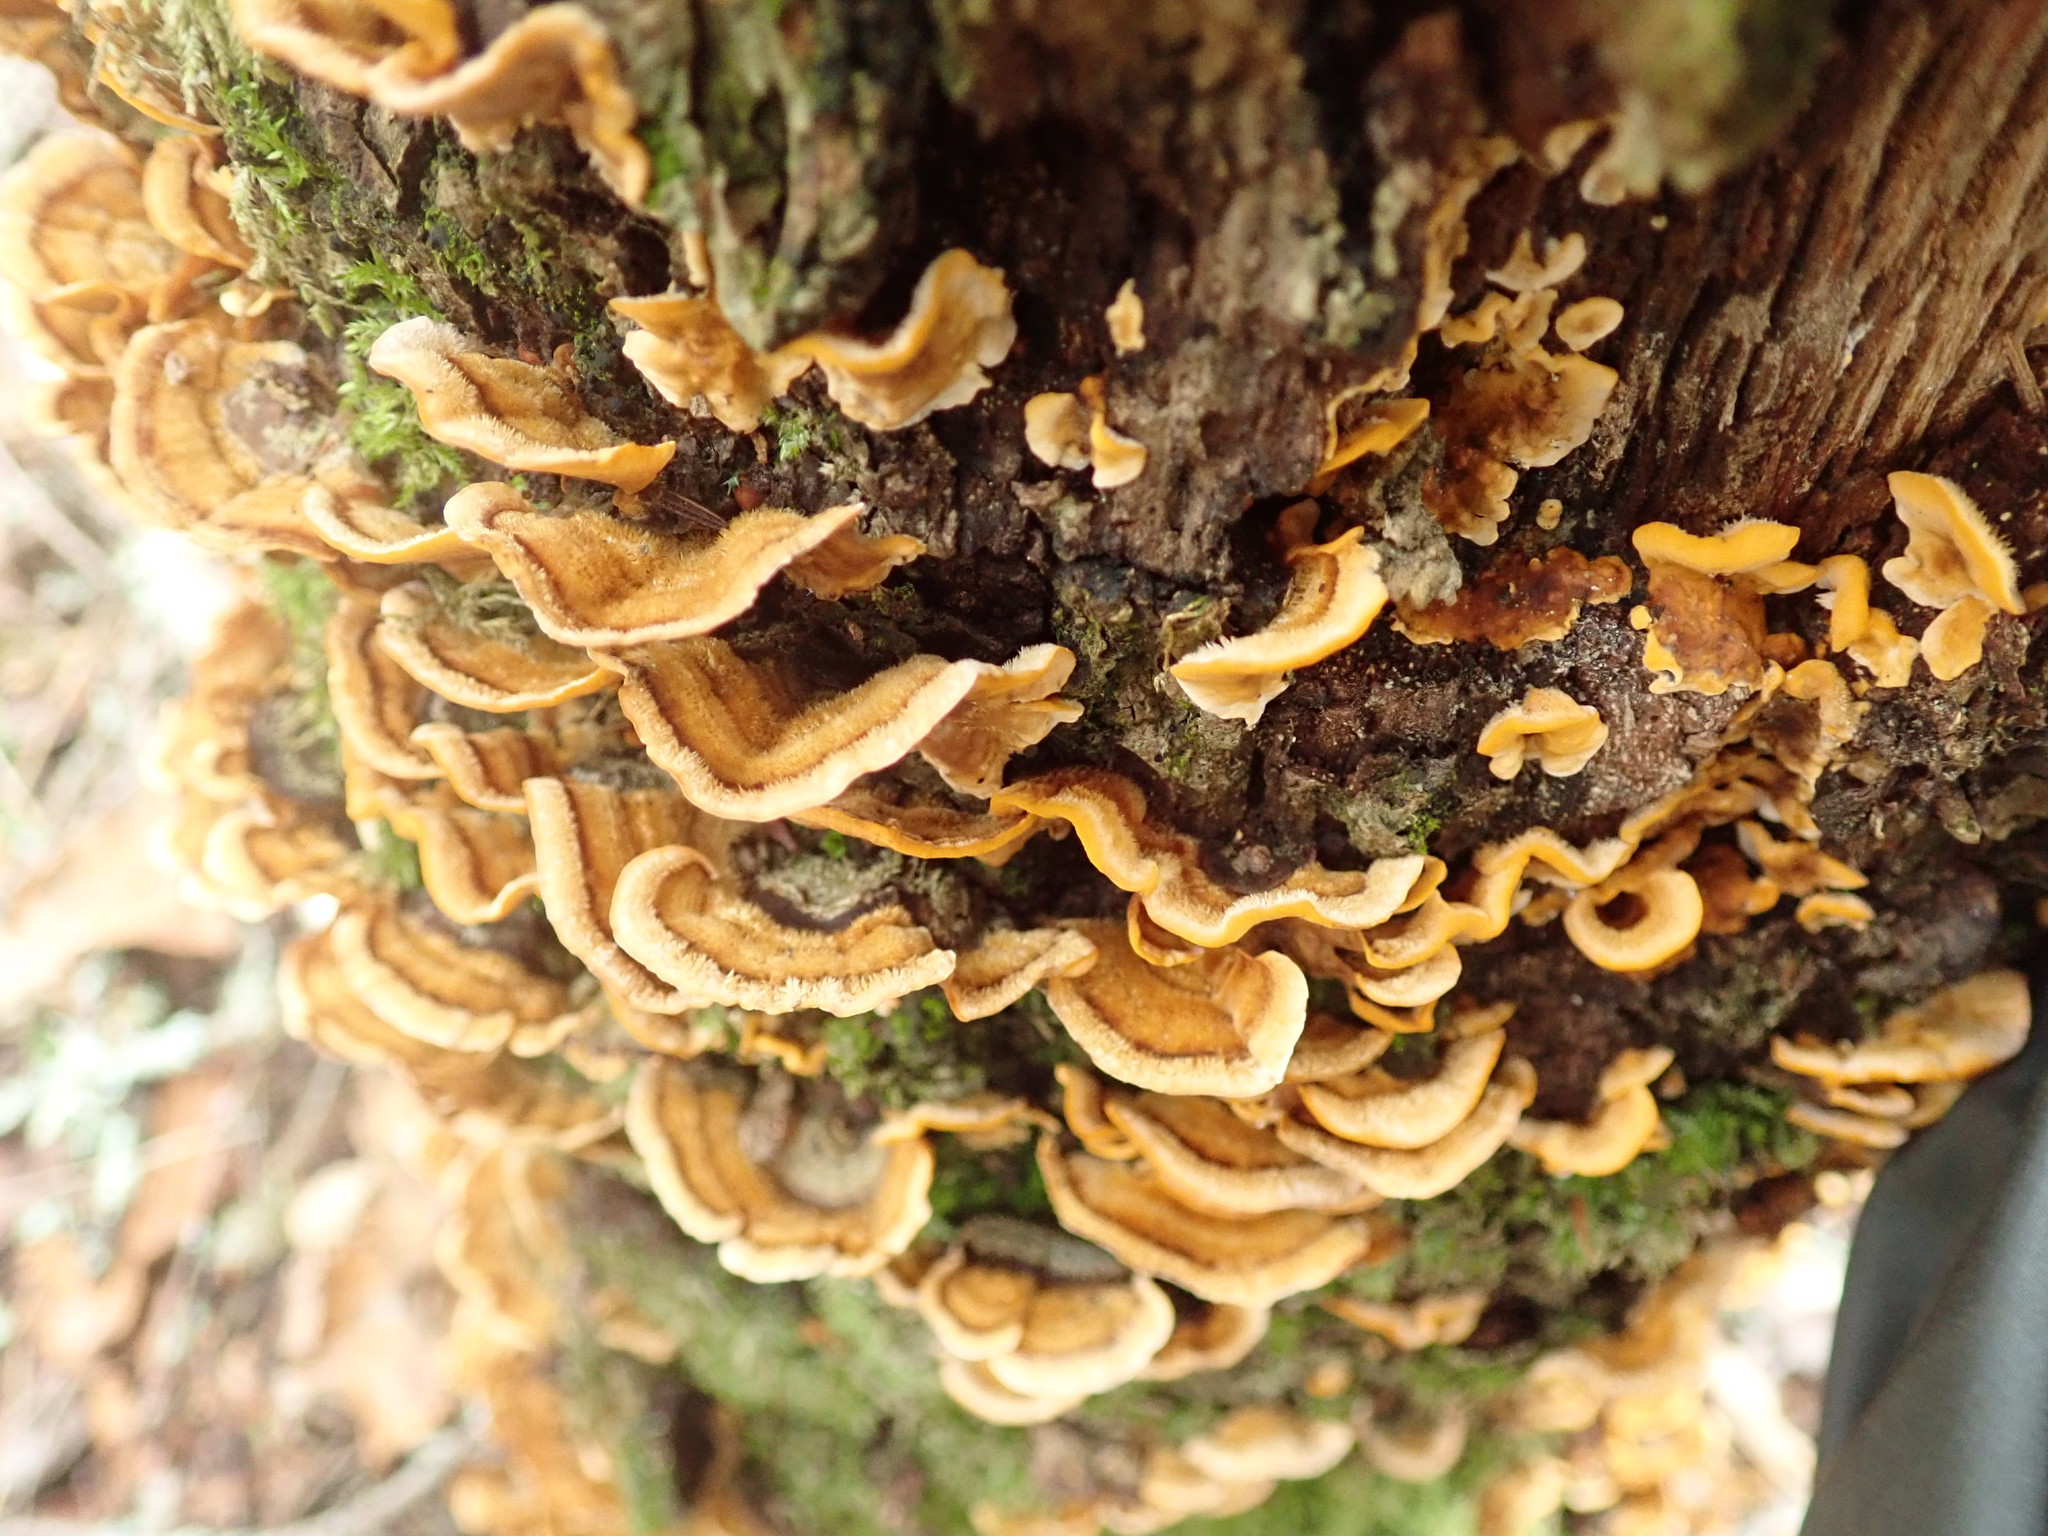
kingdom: Fungi
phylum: Basidiomycota
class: Agaricomycetes
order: Russulales
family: Stereaceae
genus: Stereum
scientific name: Stereum hirsutum
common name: Hairy curtain crust
